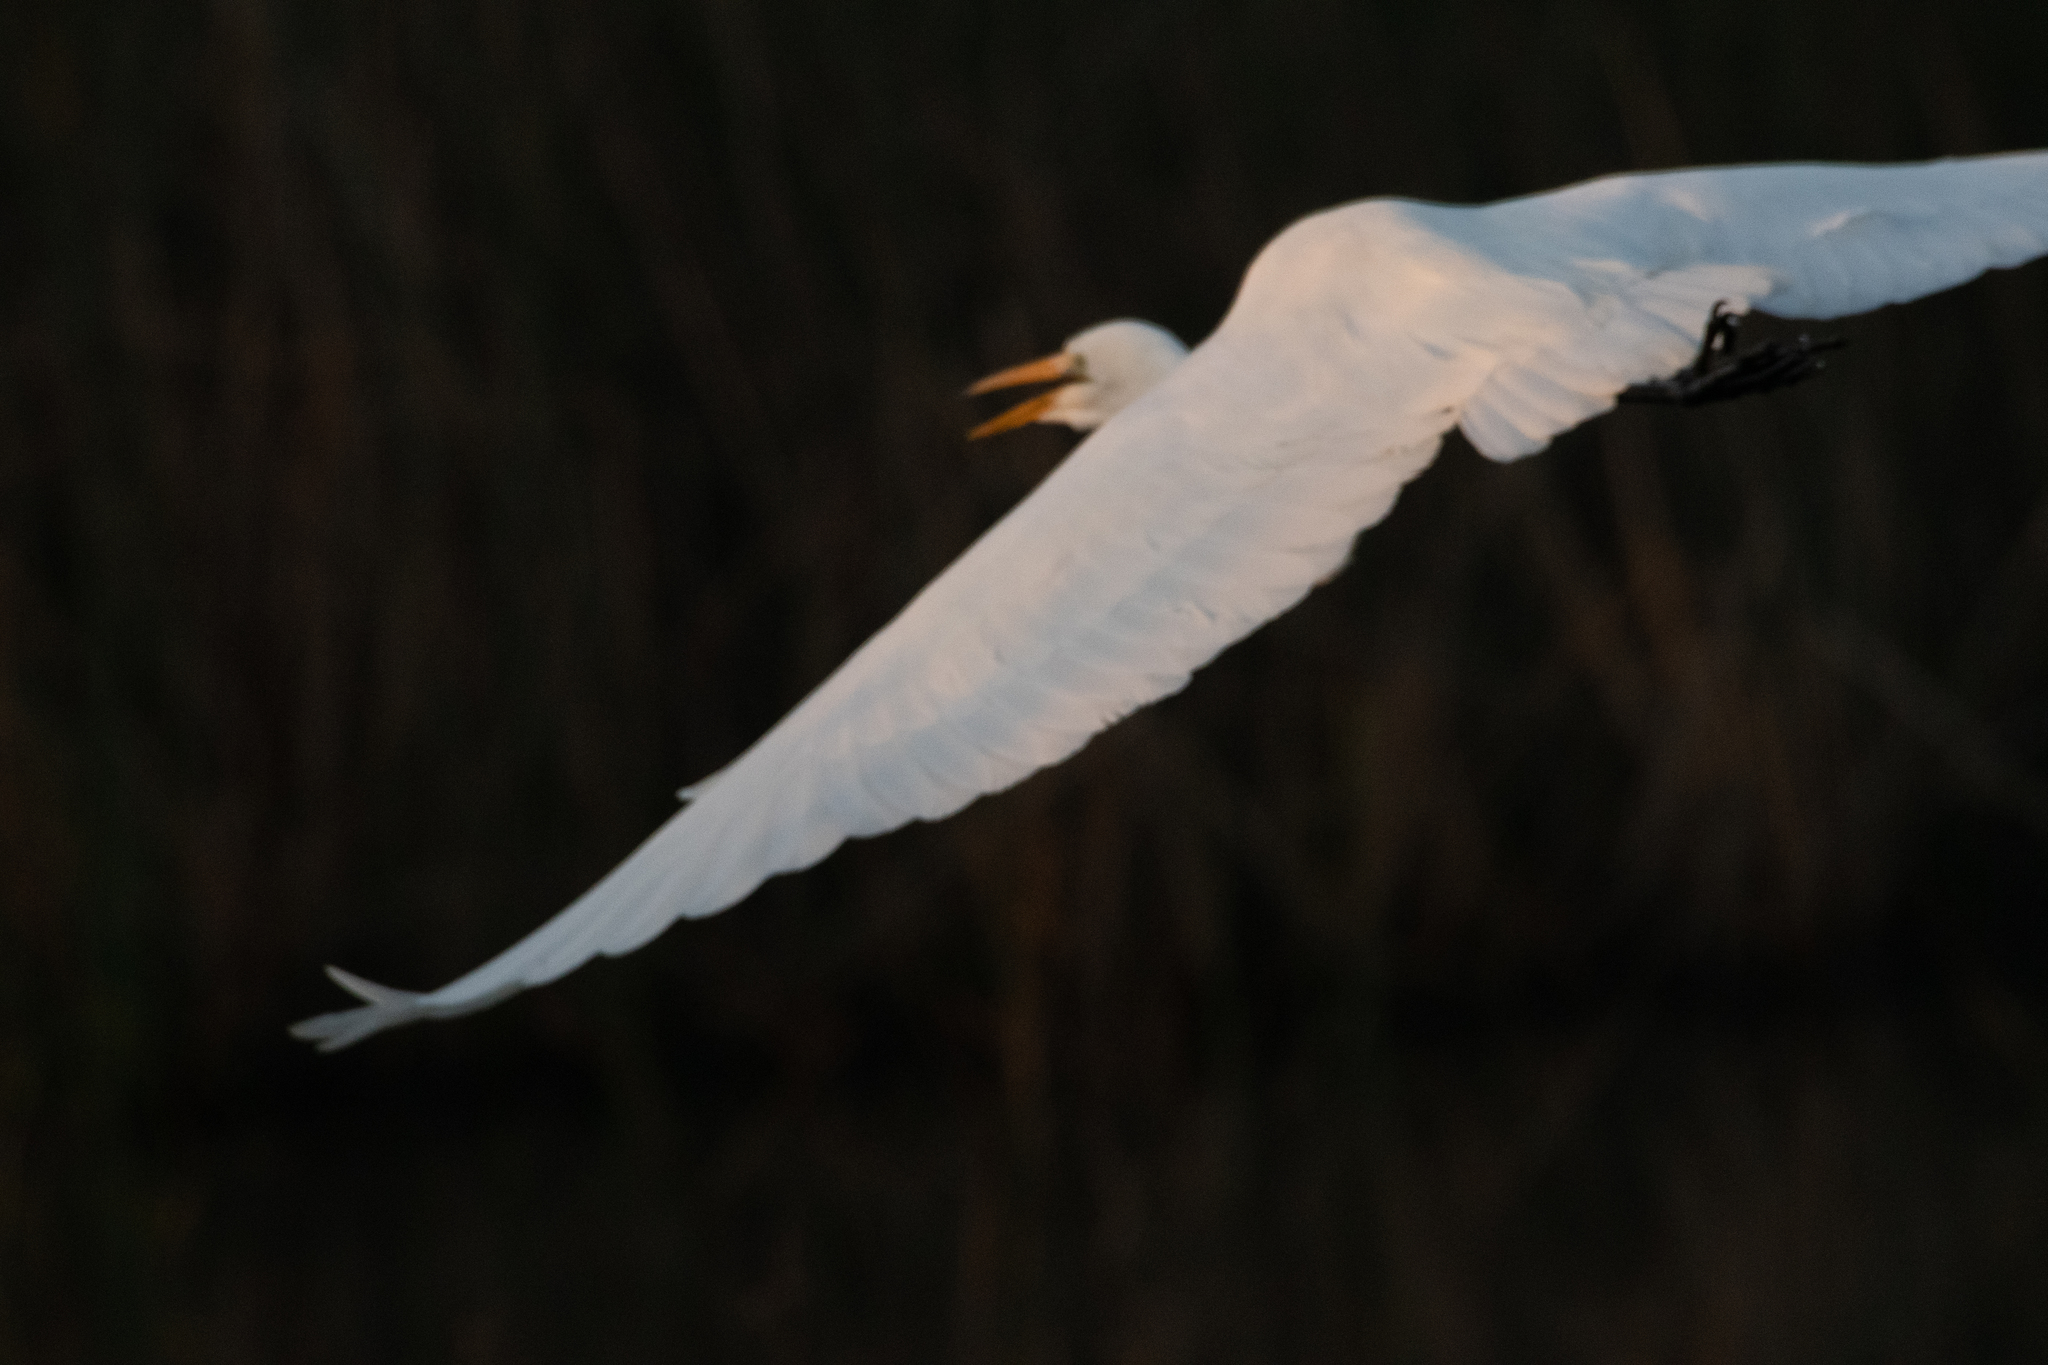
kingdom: Animalia
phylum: Chordata
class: Aves
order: Pelecaniformes
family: Ardeidae
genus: Ardea
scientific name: Ardea alba
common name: Great egret
